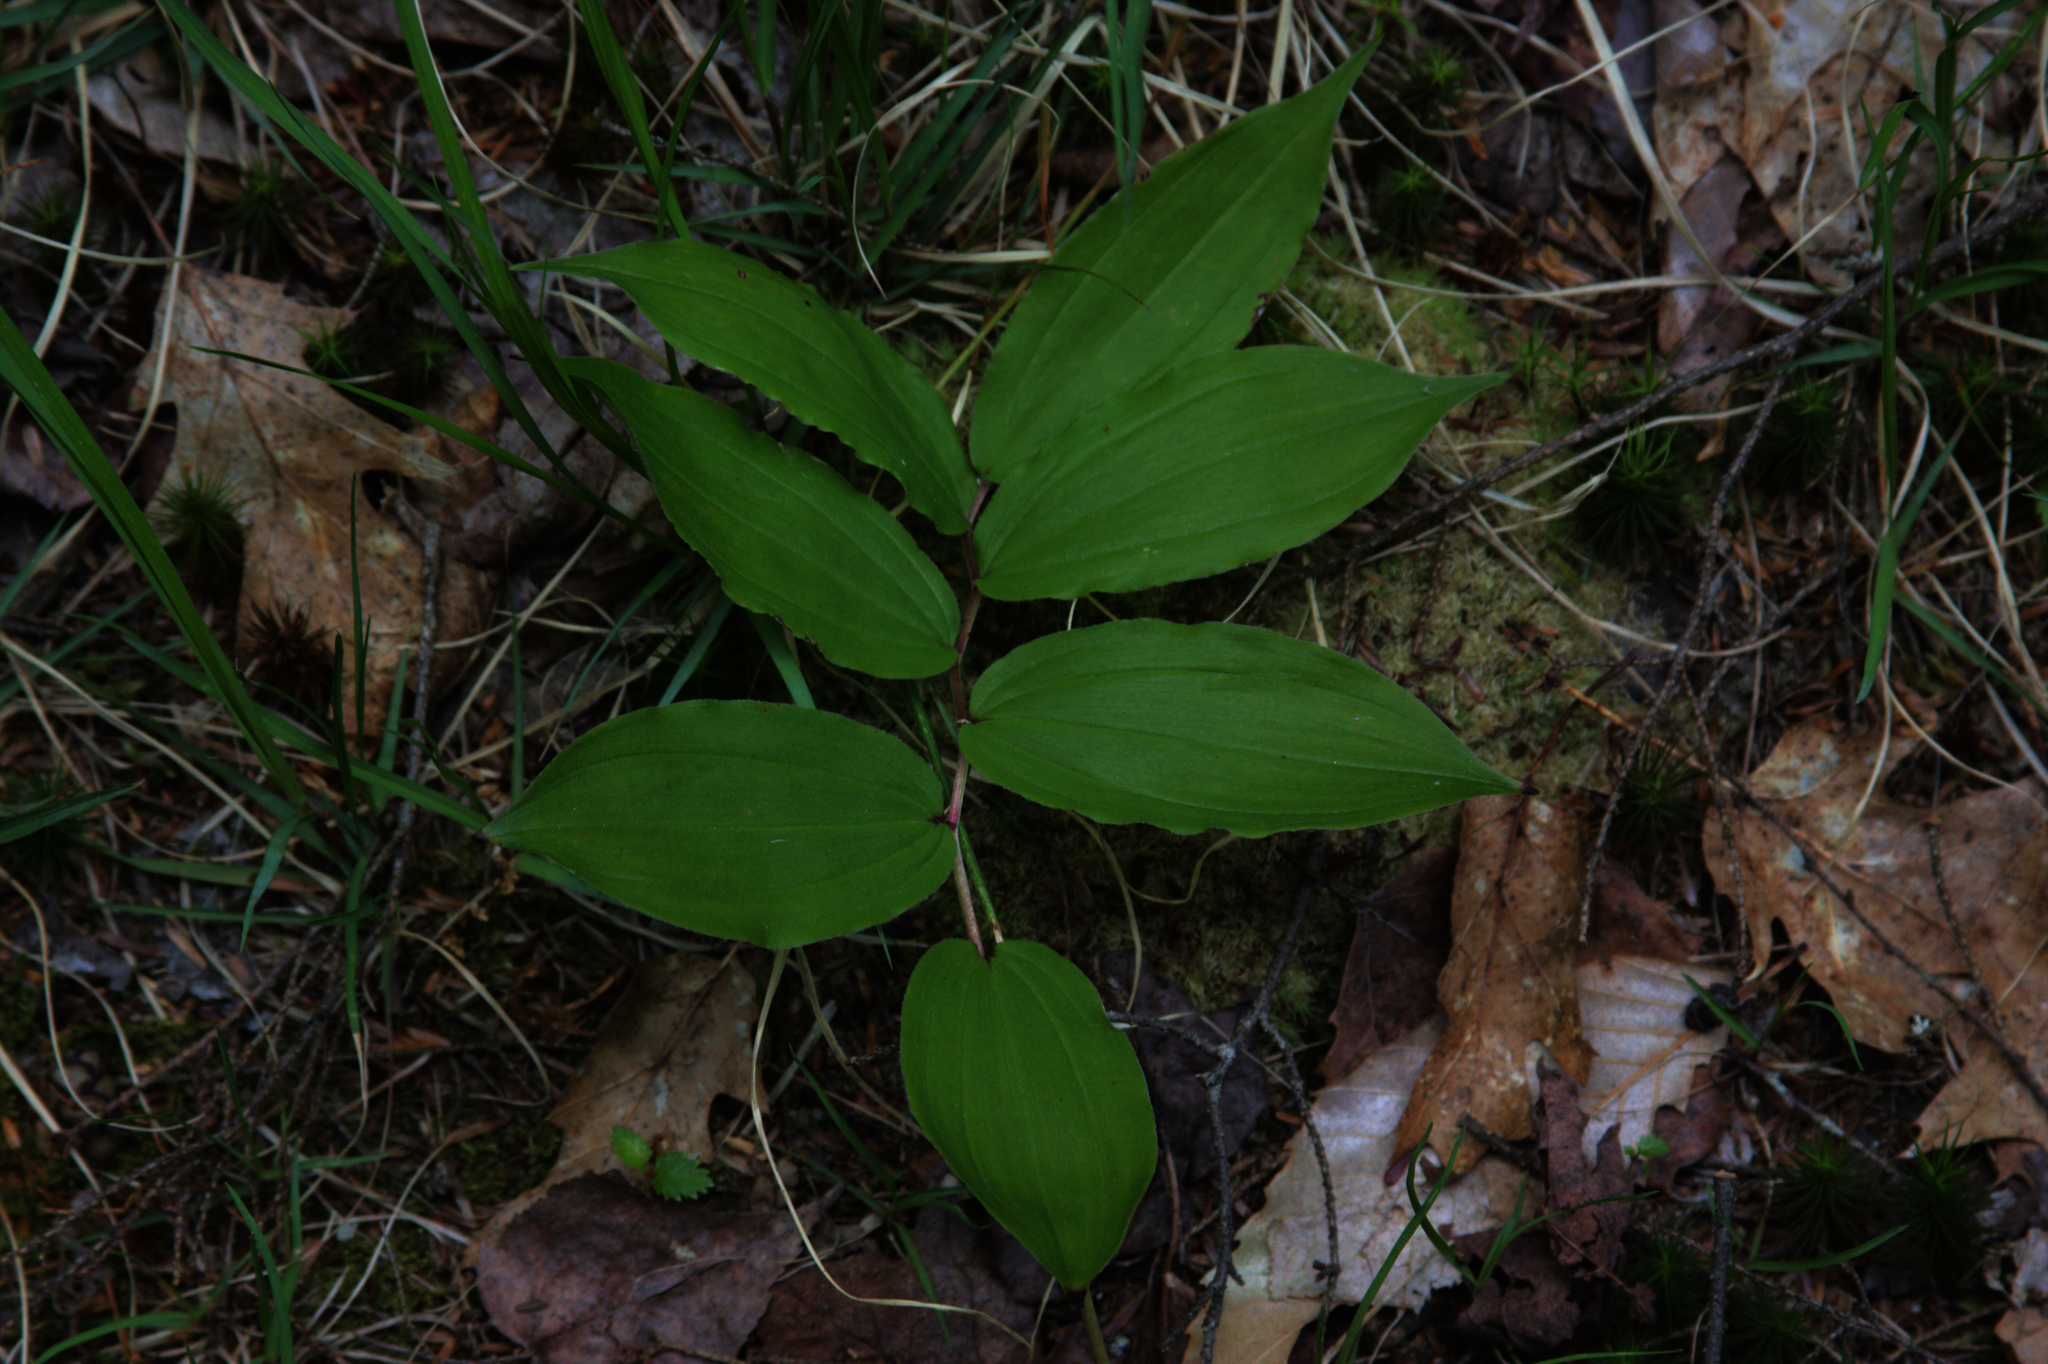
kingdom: Plantae
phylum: Tracheophyta
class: Liliopsida
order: Asparagales
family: Asparagaceae
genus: Maianthemum
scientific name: Maianthemum racemosum
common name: False spikenard
